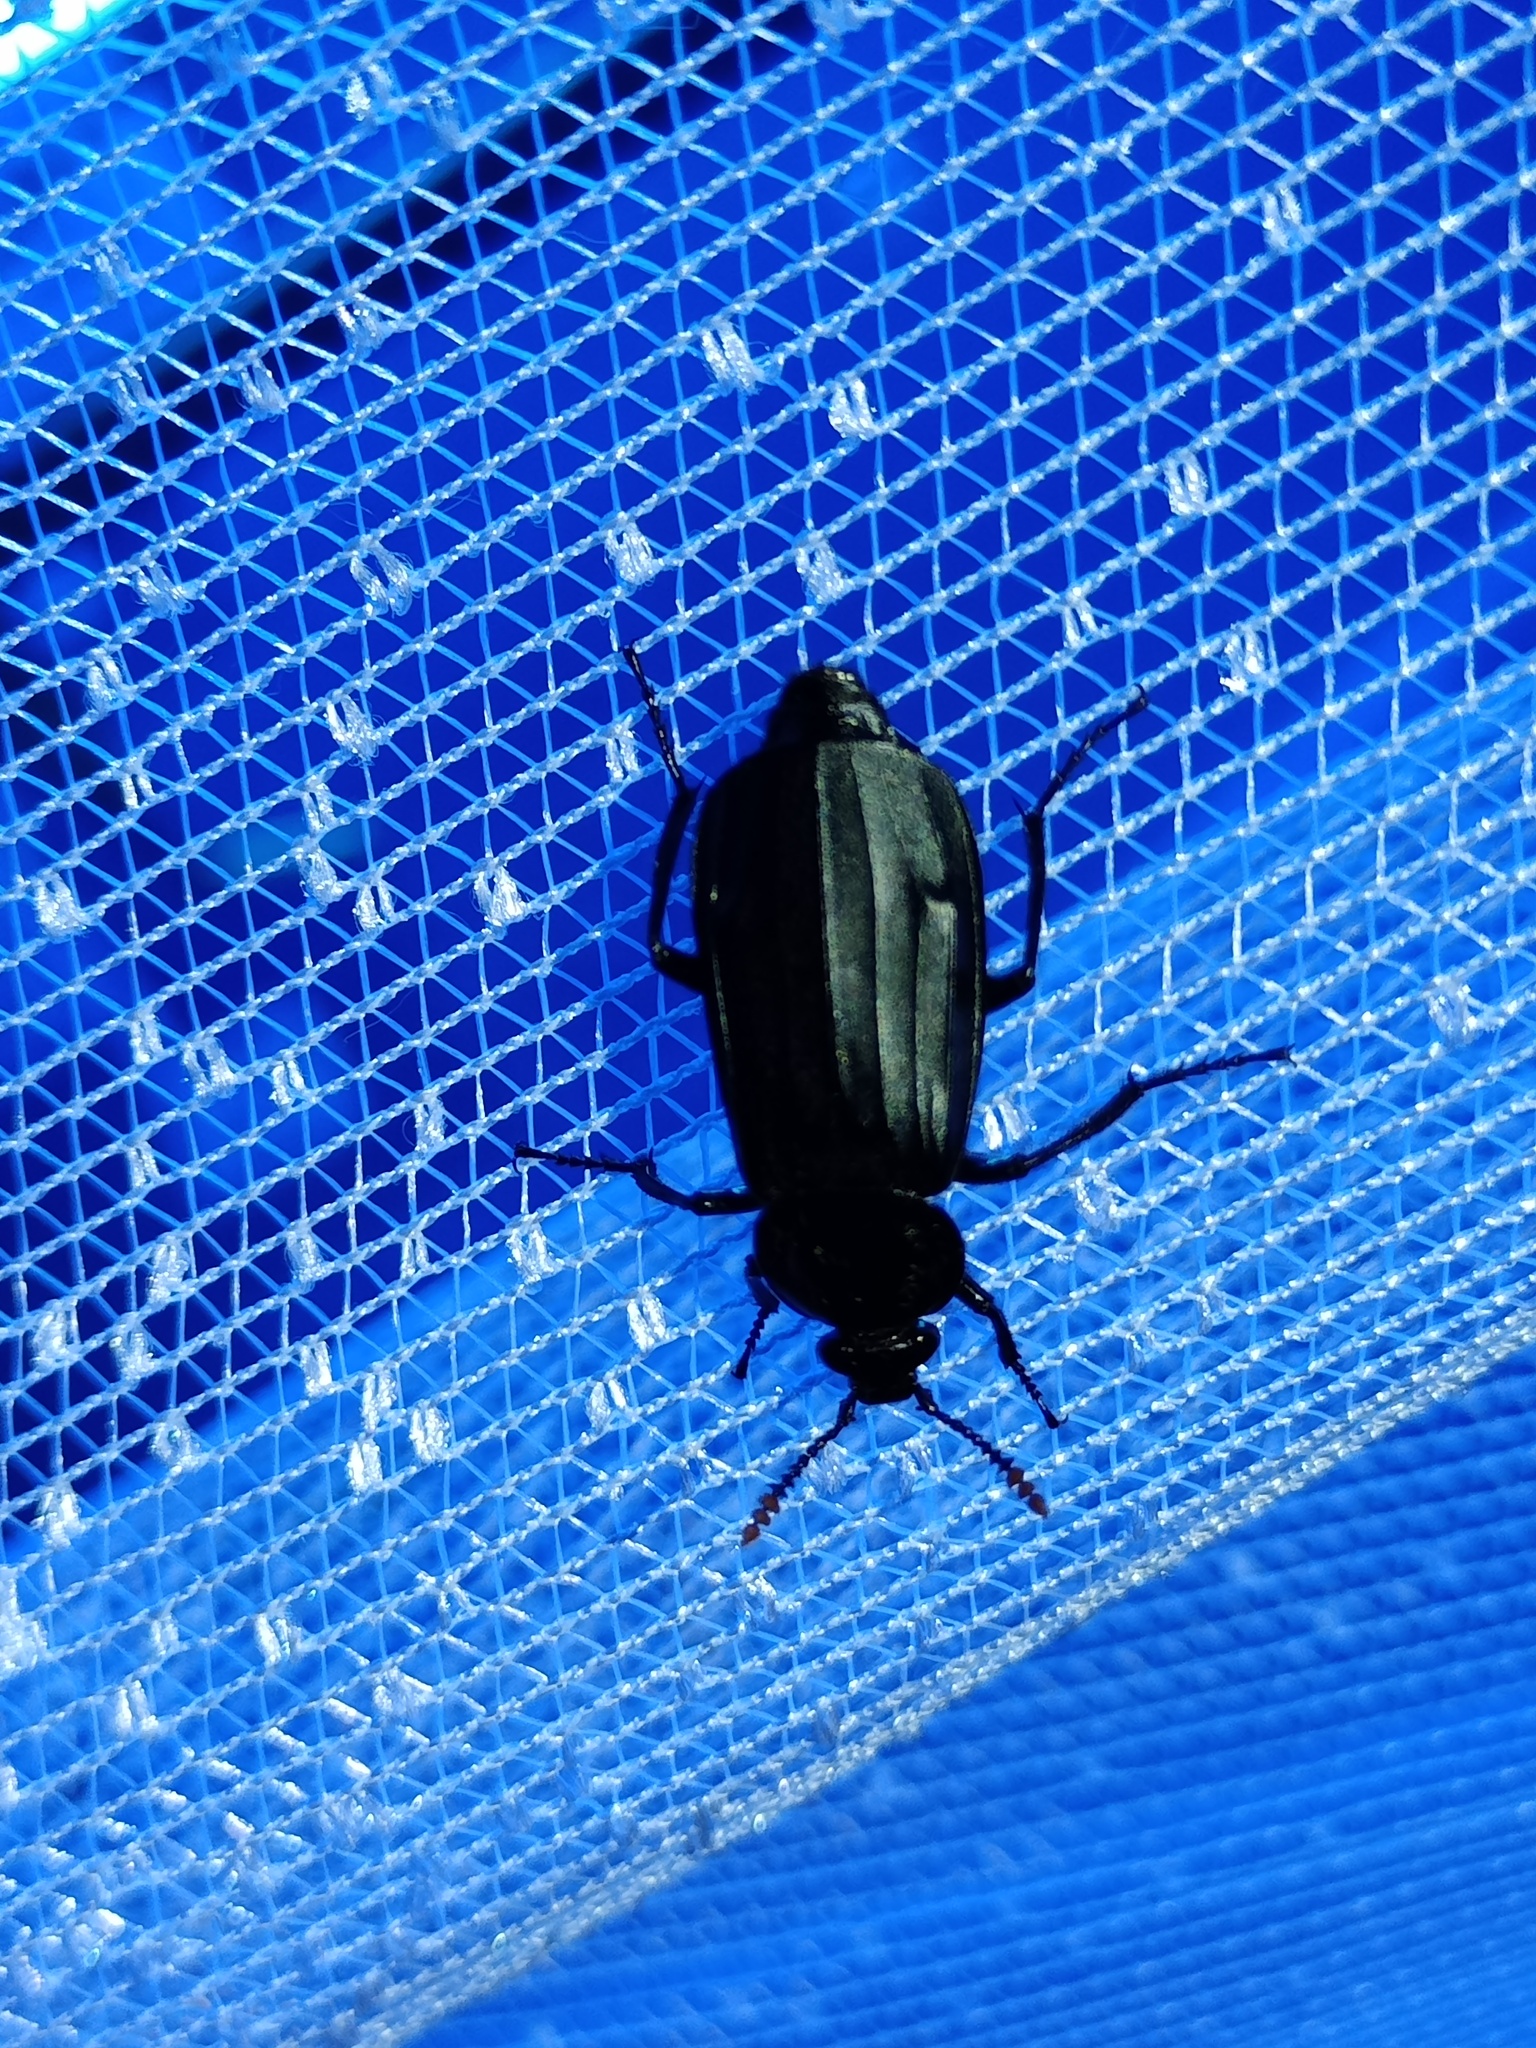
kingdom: Animalia
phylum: Arthropoda
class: Insecta
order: Coleoptera
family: Staphylinidae
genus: Necrodes
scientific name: Necrodes littoralis
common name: Shore sexton beetle
